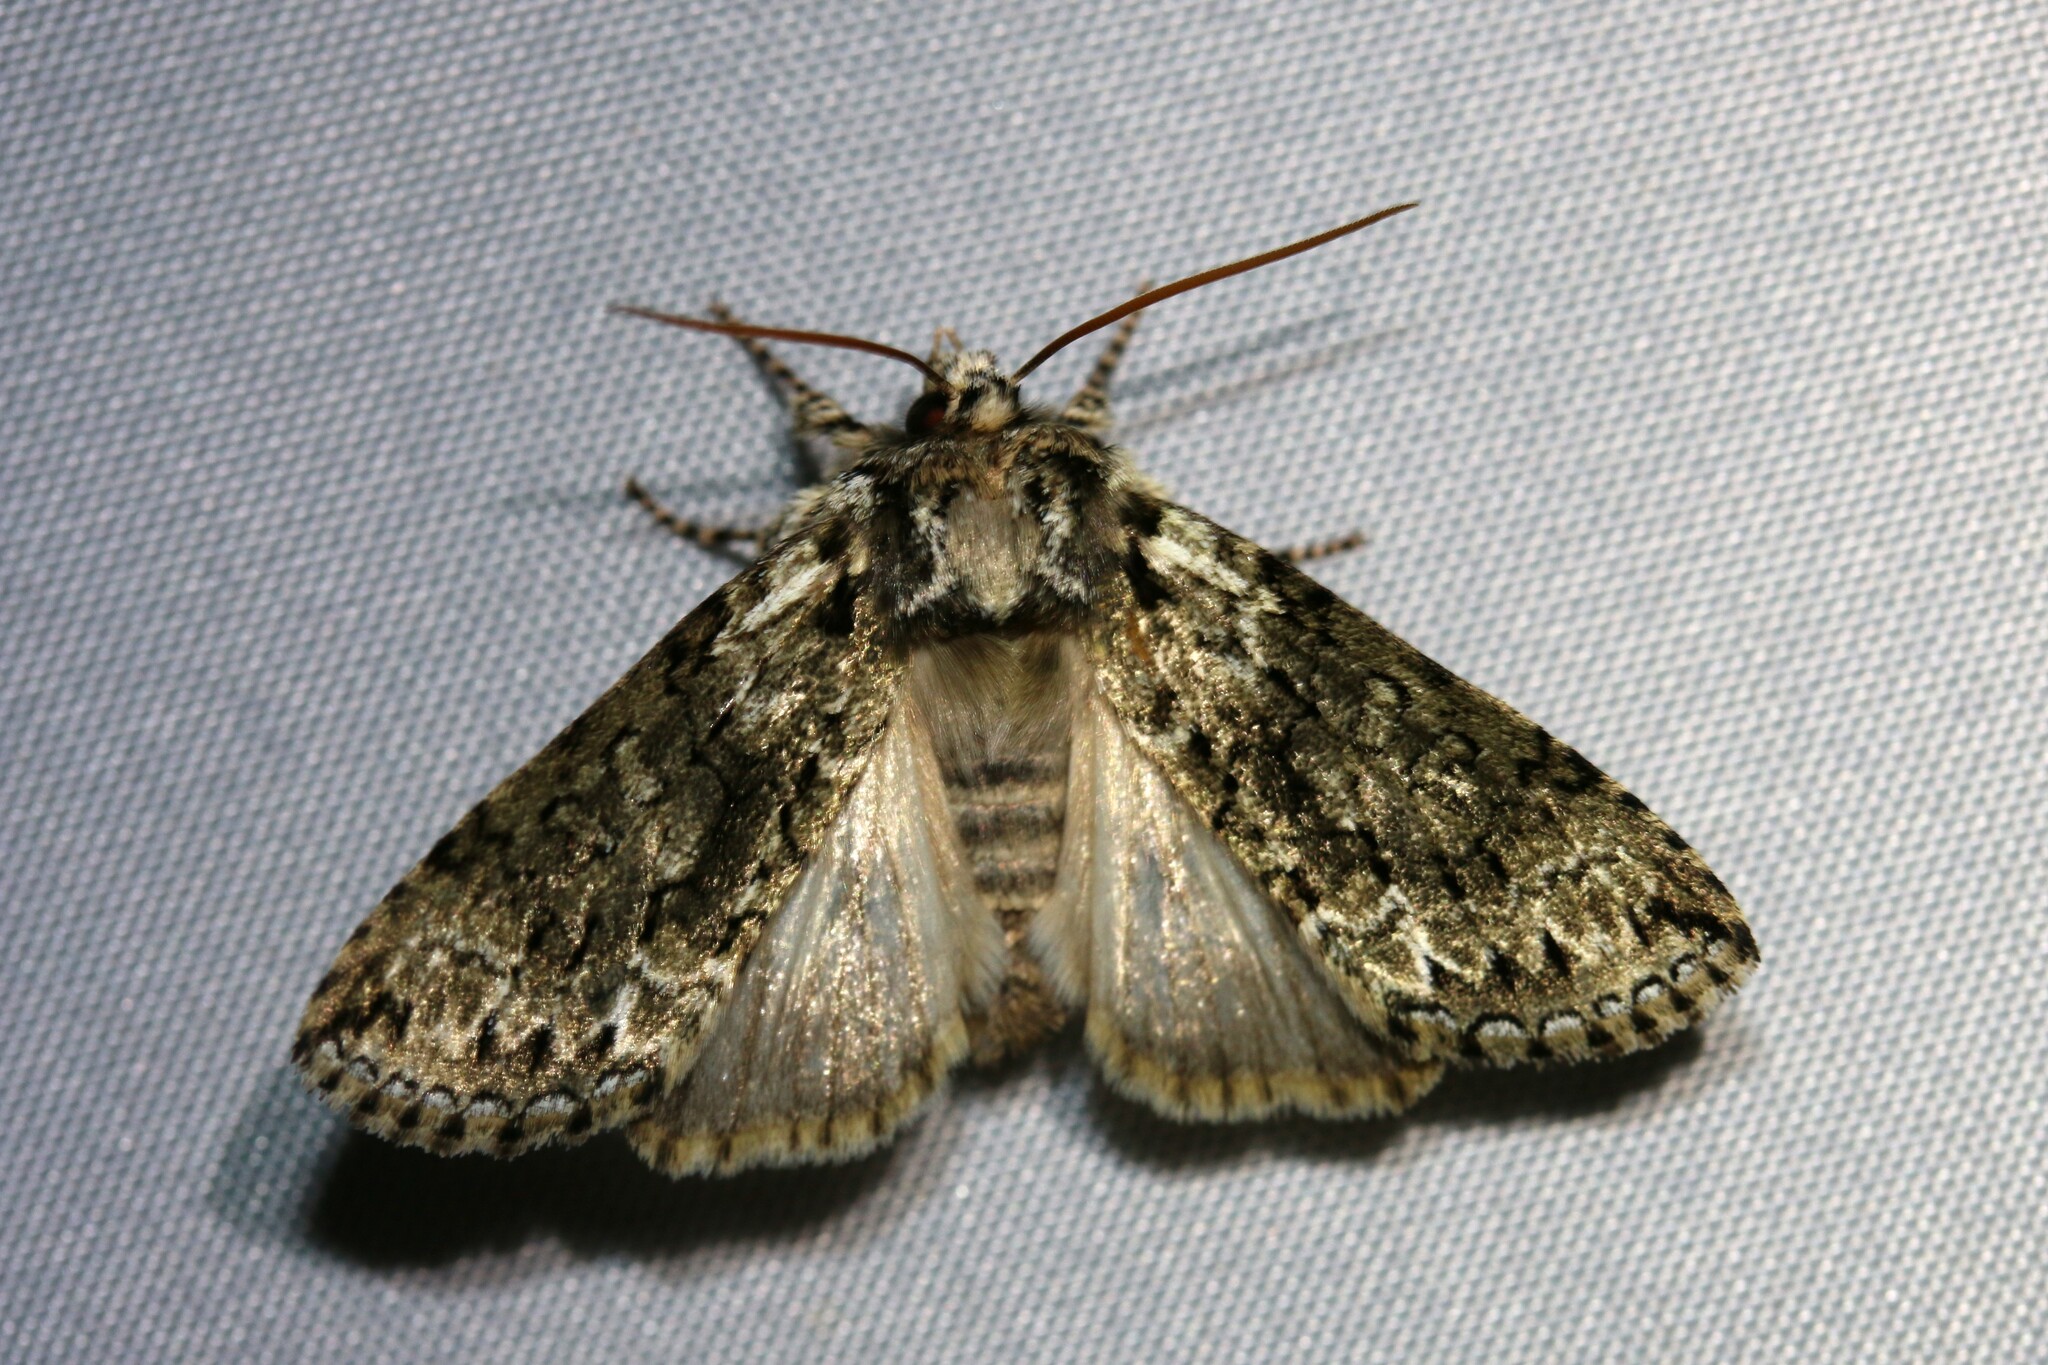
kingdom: Animalia
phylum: Arthropoda
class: Insecta
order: Lepidoptera
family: Drepanidae
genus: Polyploca
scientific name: Polyploca ridens
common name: Frosted green
